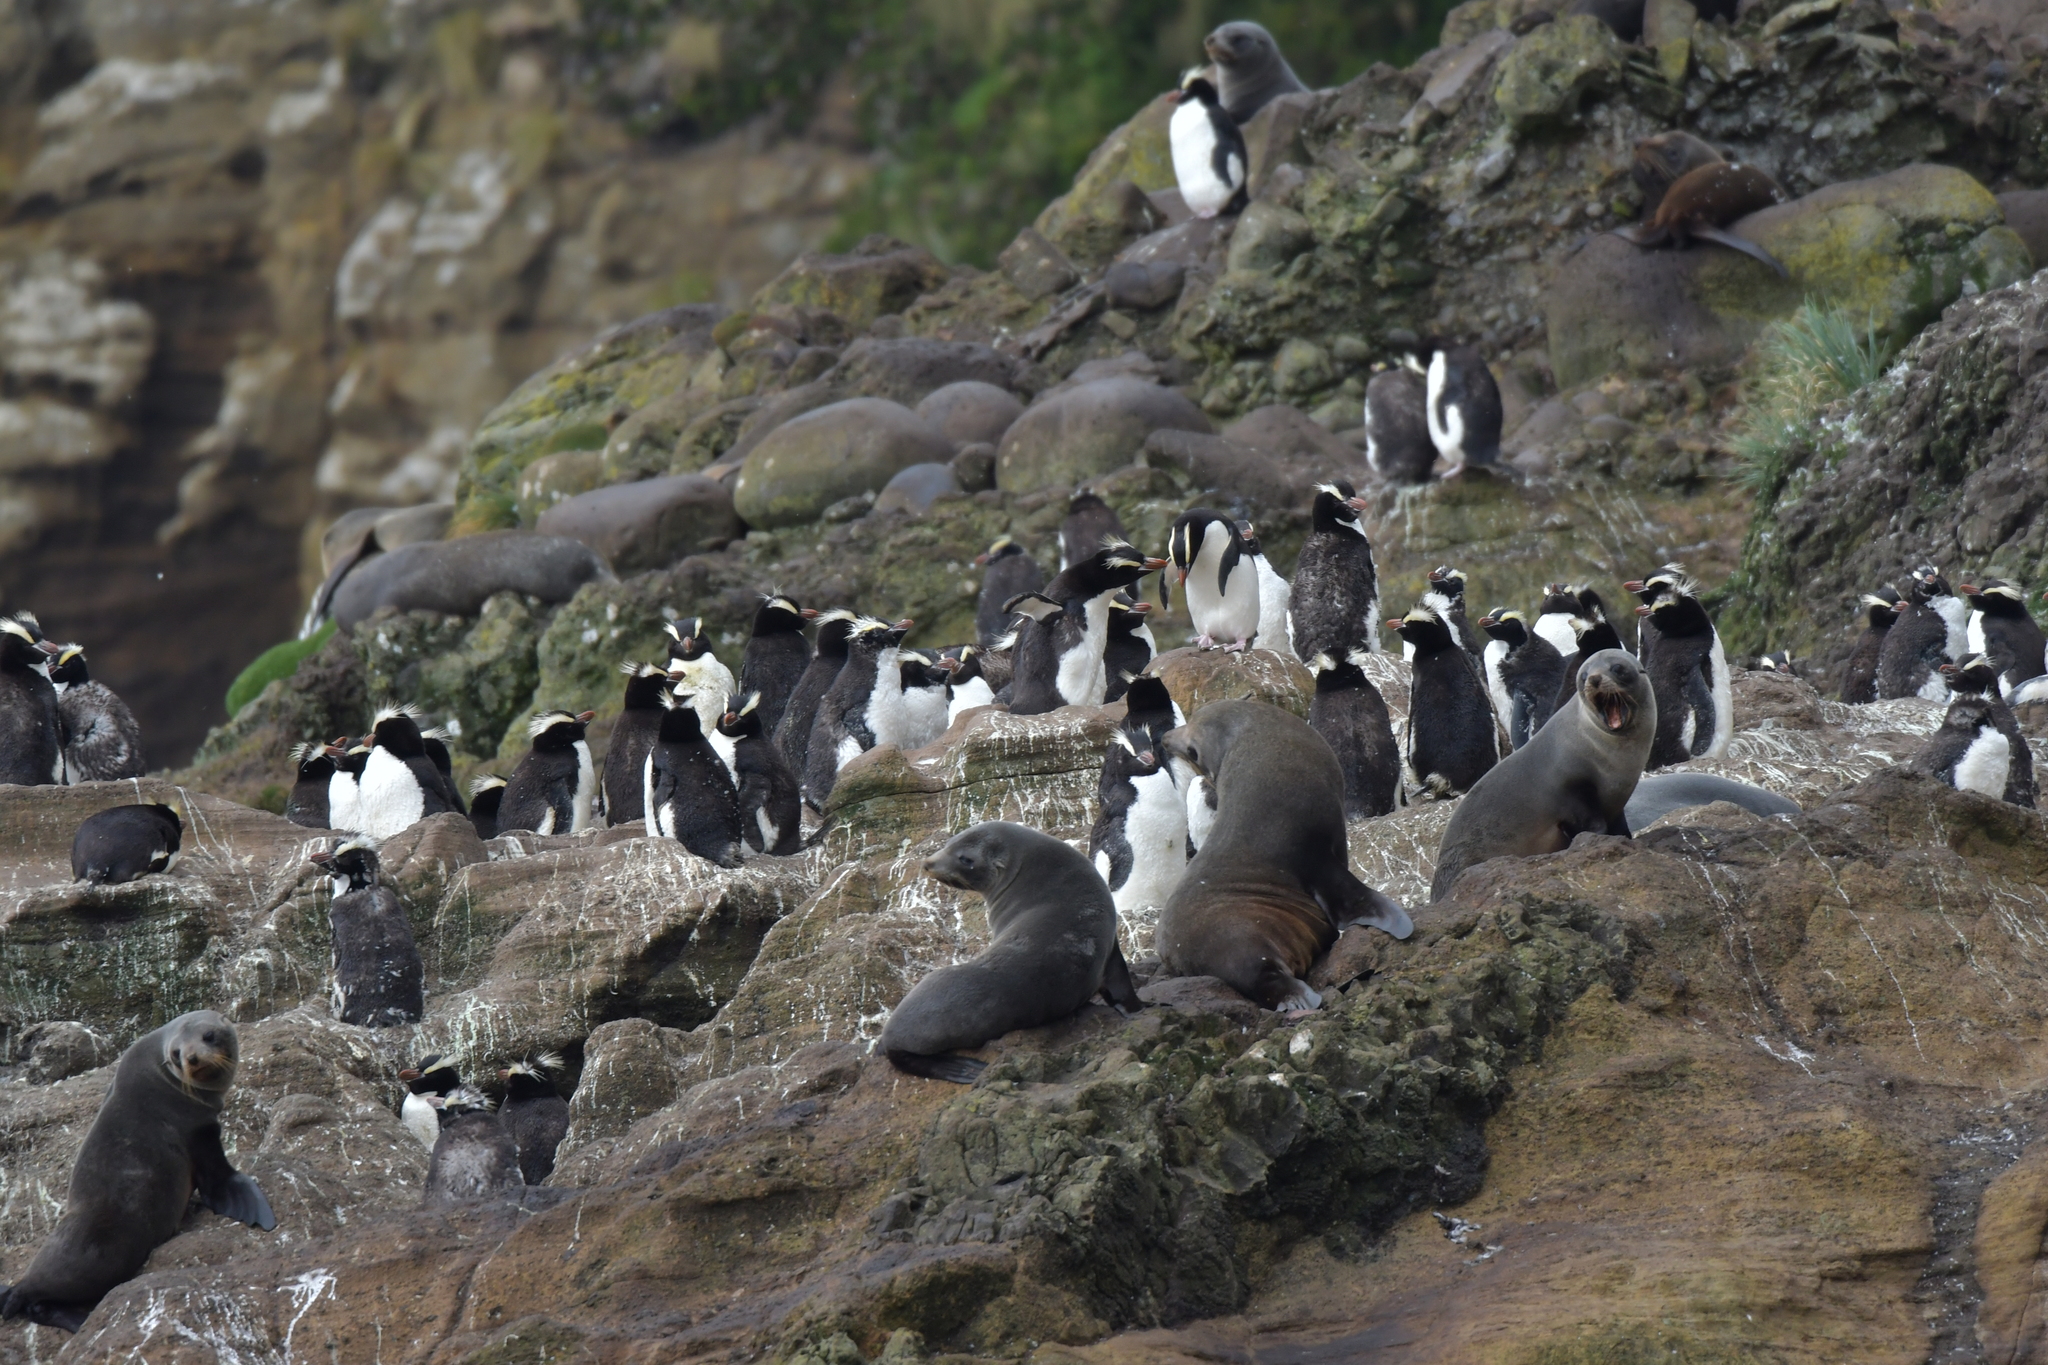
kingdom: Animalia
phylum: Chordata
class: Aves
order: Sphenisciformes
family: Spheniscidae
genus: Eudyptes
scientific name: Eudyptes sclateri
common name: Erect-crested penguin
